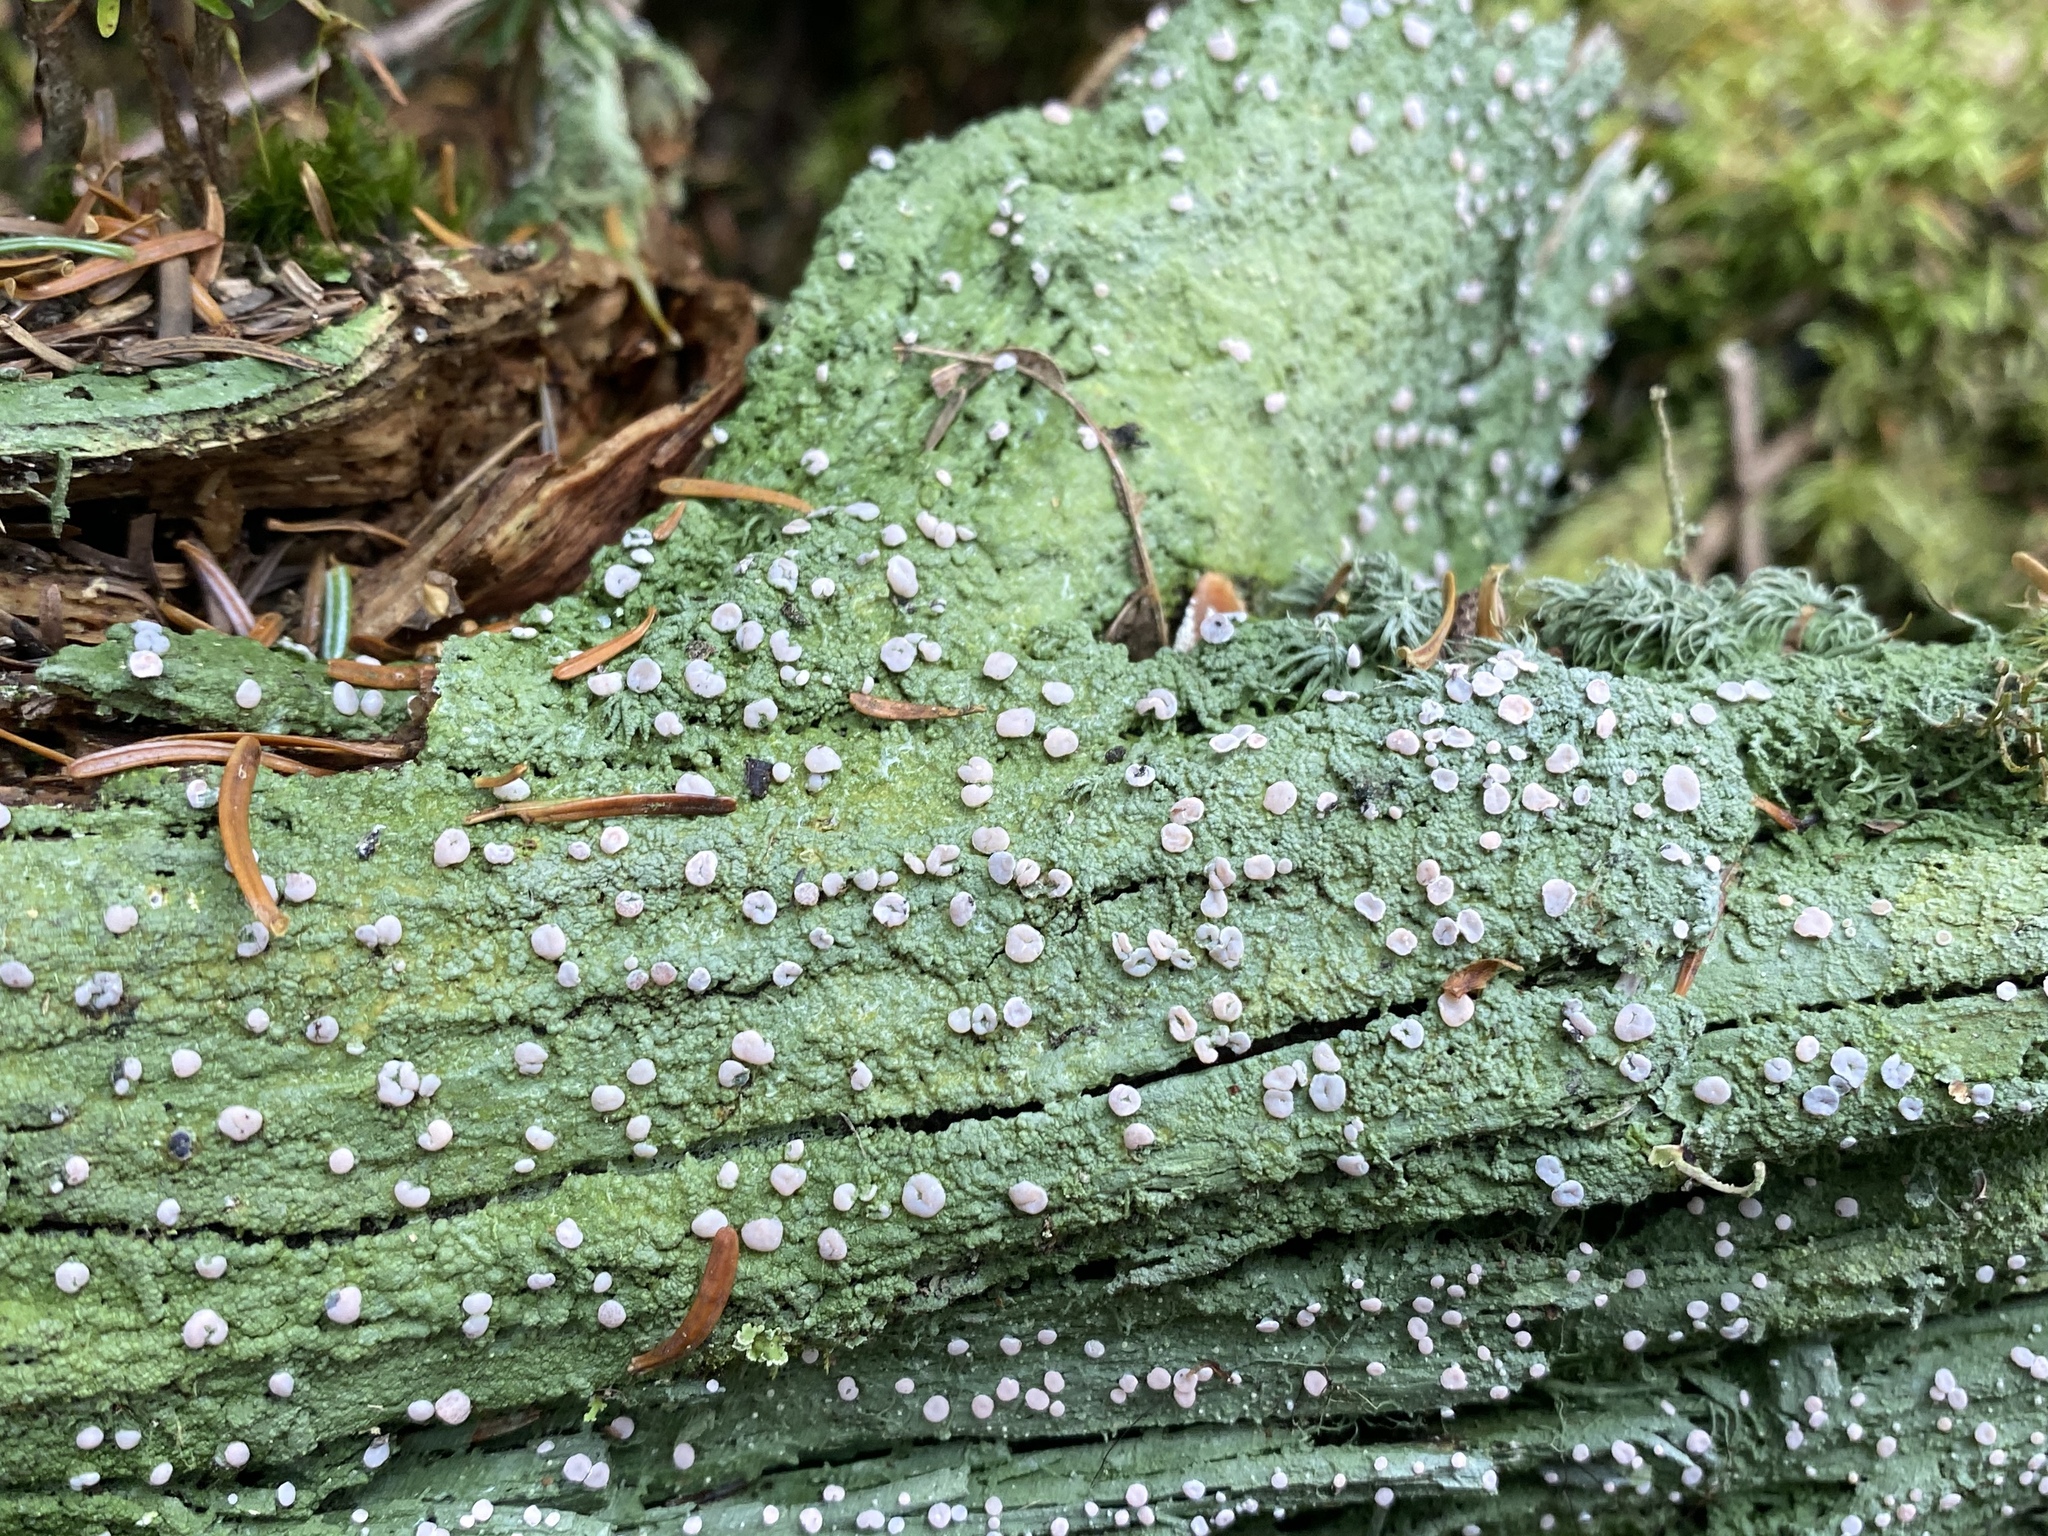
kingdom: Fungi
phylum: Ascomycota
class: Lecanoromycetes
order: Pertusariales
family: Icmadophilaceae
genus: Icmadophila
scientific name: Icmadophila ericetorum
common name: Candy lichen
